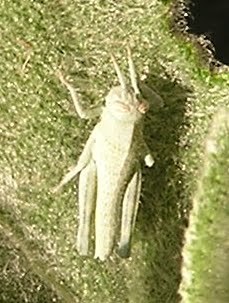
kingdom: Animalia
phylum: Arthropoda
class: Insecta
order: Orthoptera
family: Acrididae
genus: Schistocerca
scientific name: Schistocerca nitens
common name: Vagrant grasshopper
